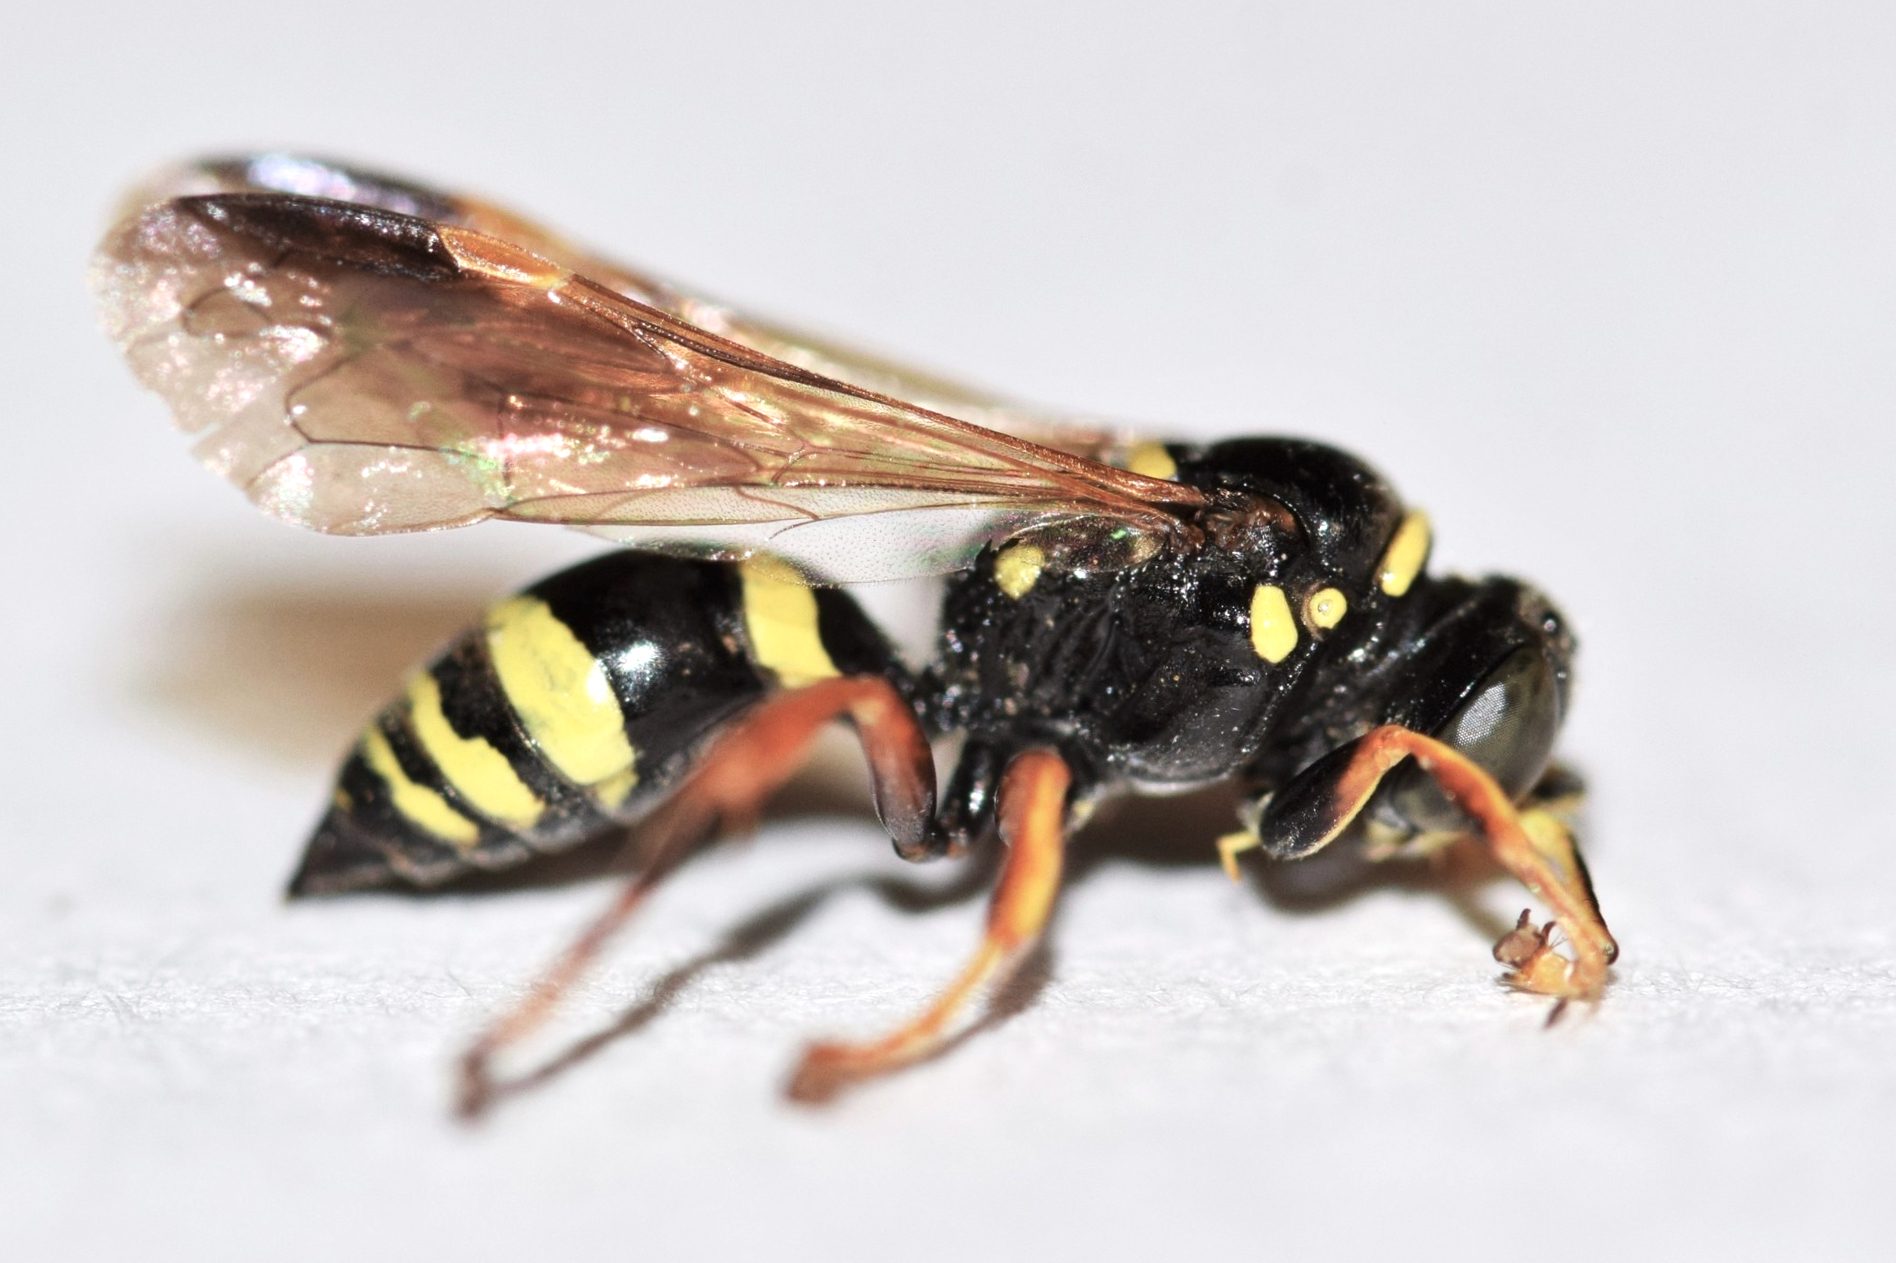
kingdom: Animalia
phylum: Arthropoda
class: Insecta
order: Hymenoptera
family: Crabronidae
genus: Gorytes
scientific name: Gorytes canaliculatus
